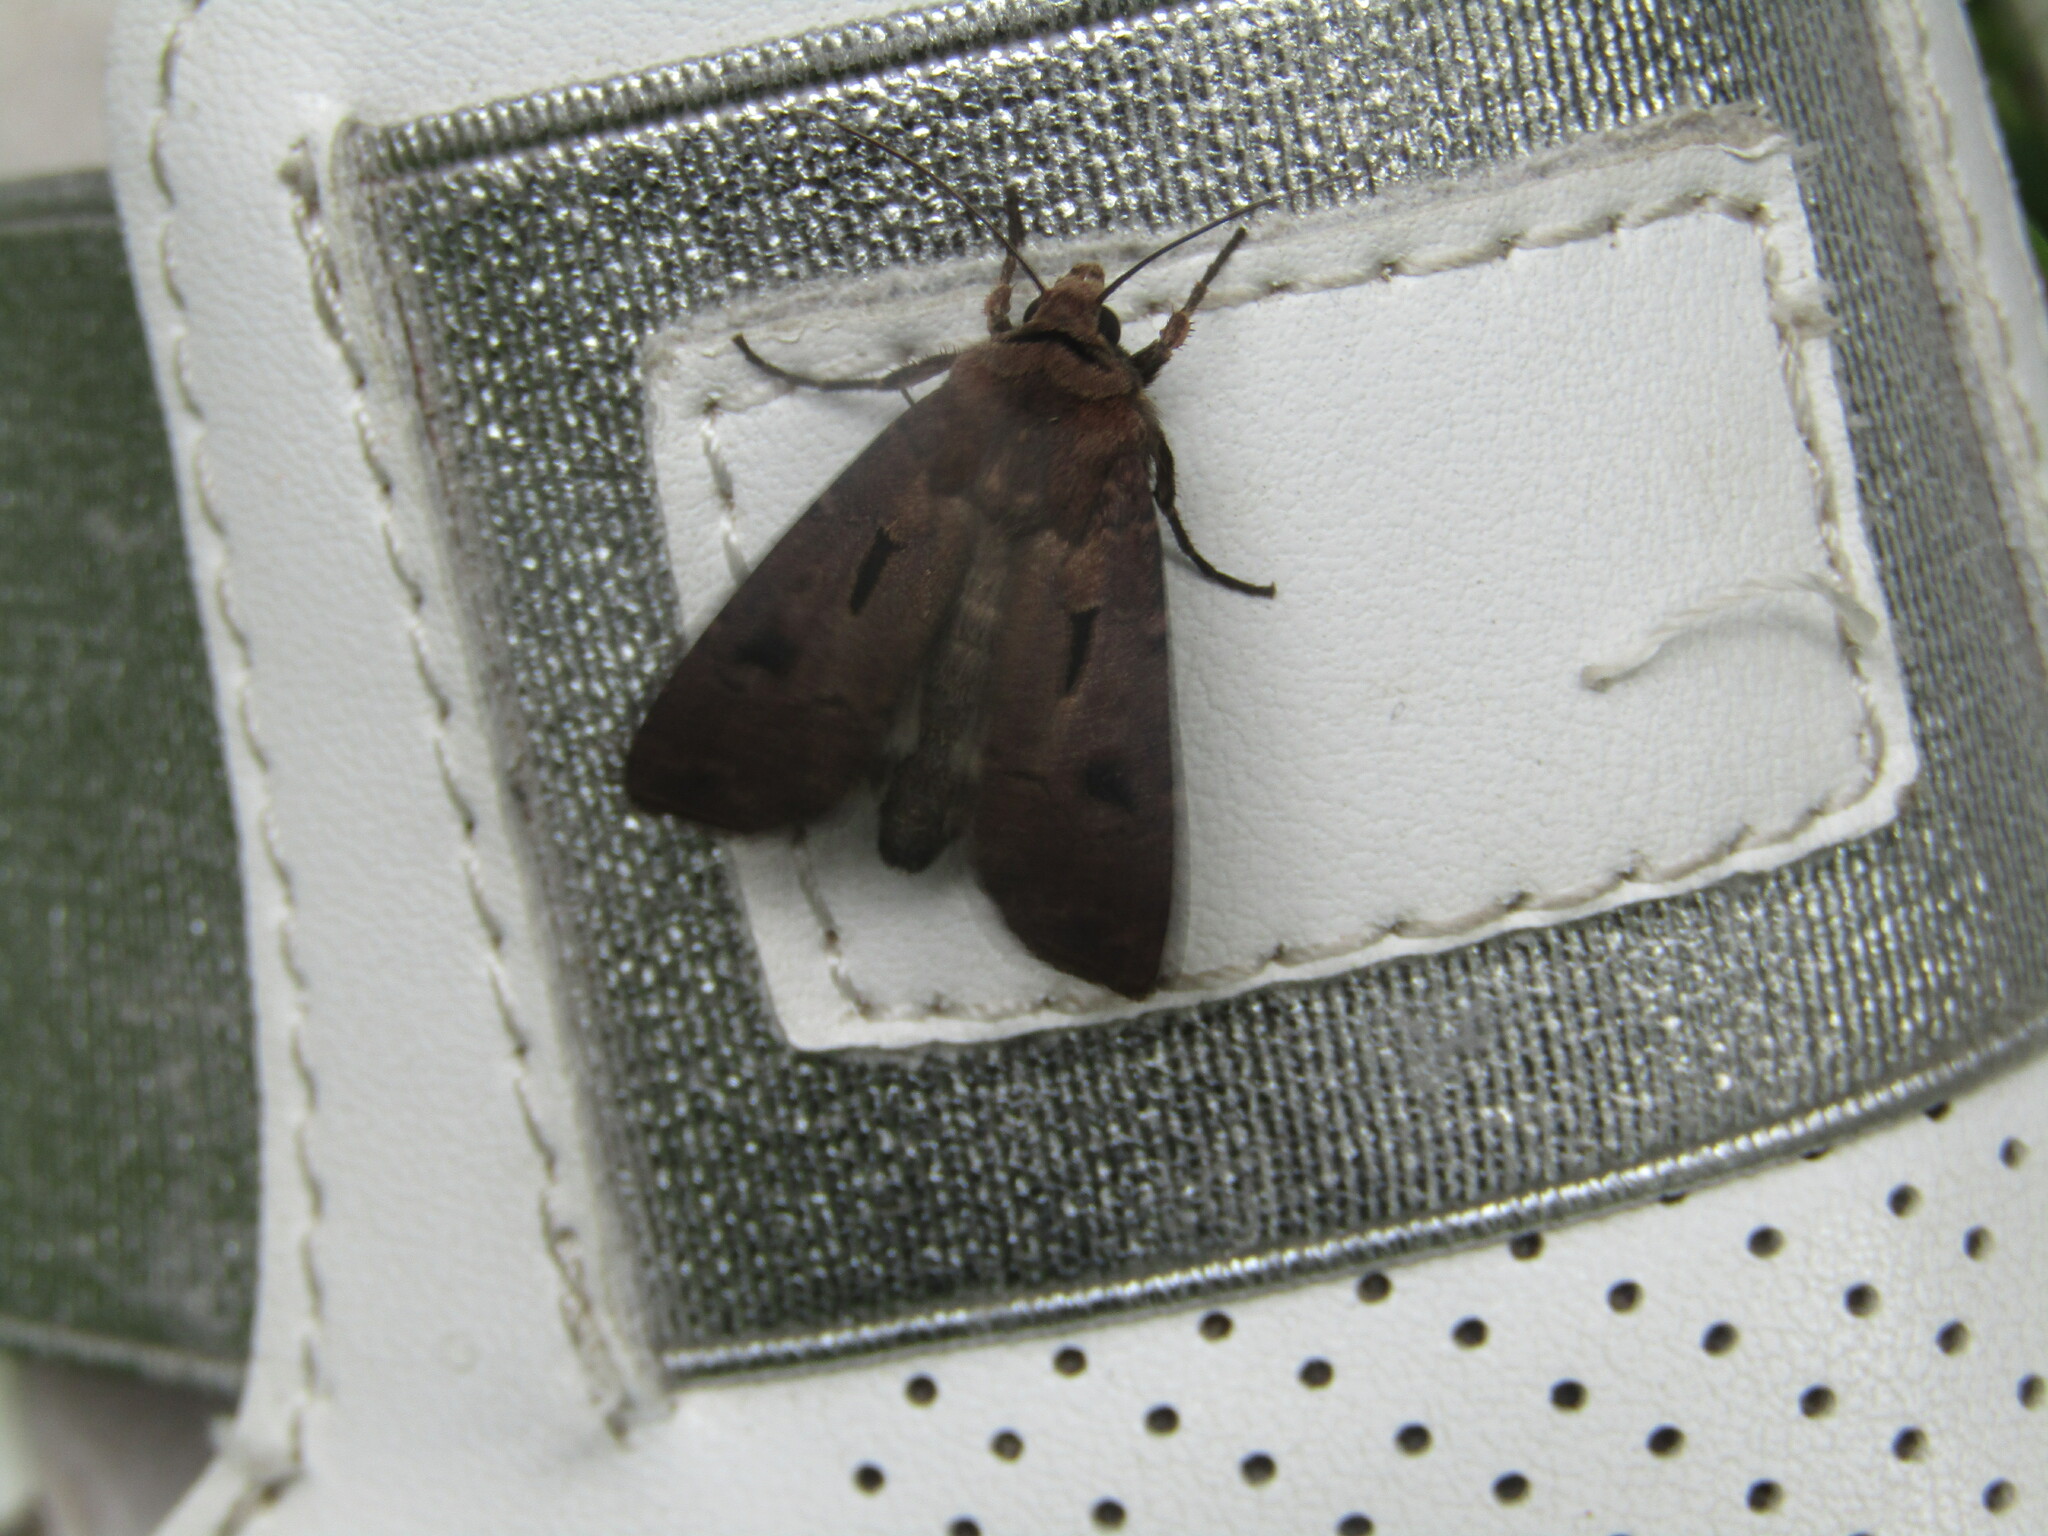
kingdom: Animalia
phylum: Arthropoda
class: Insecta
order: Lepidoptera
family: Noctuidae
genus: Agrotis
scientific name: Agrotis exclamationis
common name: Heart and dart
